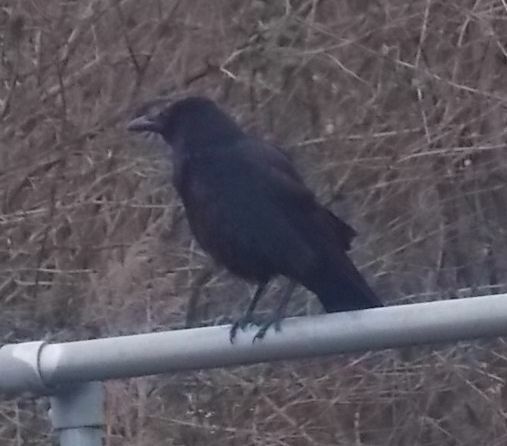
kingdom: Animalia
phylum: Chordata
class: Aves
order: Passeriformes
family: Corvidae
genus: Corvus
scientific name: Corvus corone
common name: Carrion crow
